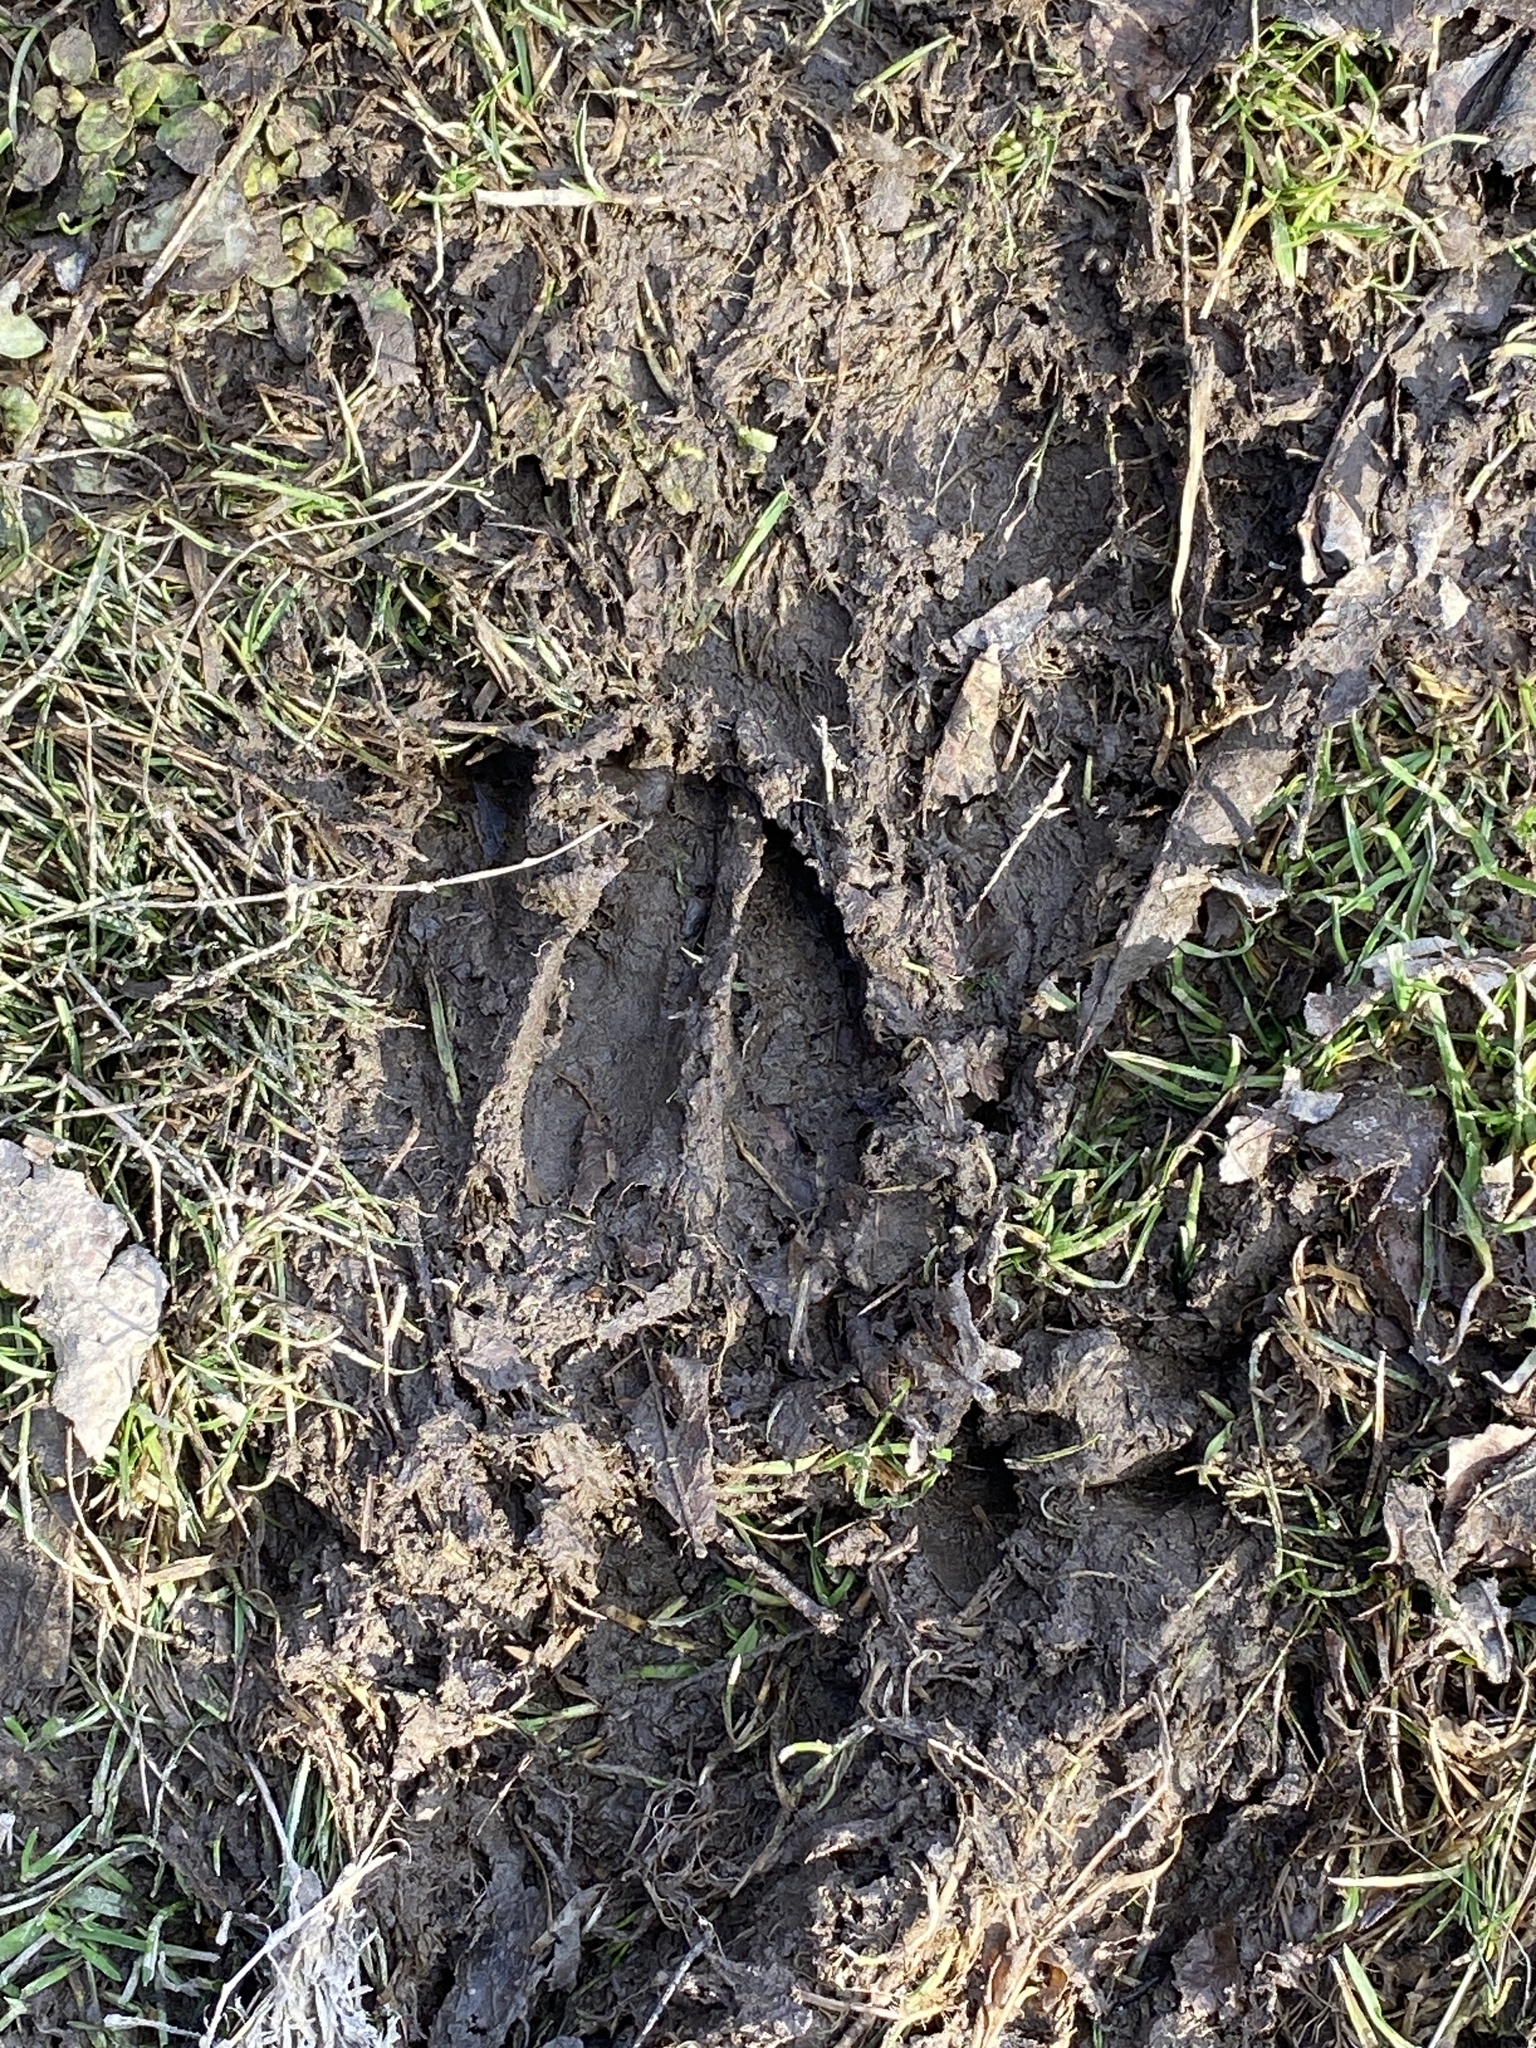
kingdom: Animalia
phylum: Chordata
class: Mammalia
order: Artiodactyla
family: Cervidae
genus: Odocoileus
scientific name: Odocoileus virginianus
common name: White-tailed deer
